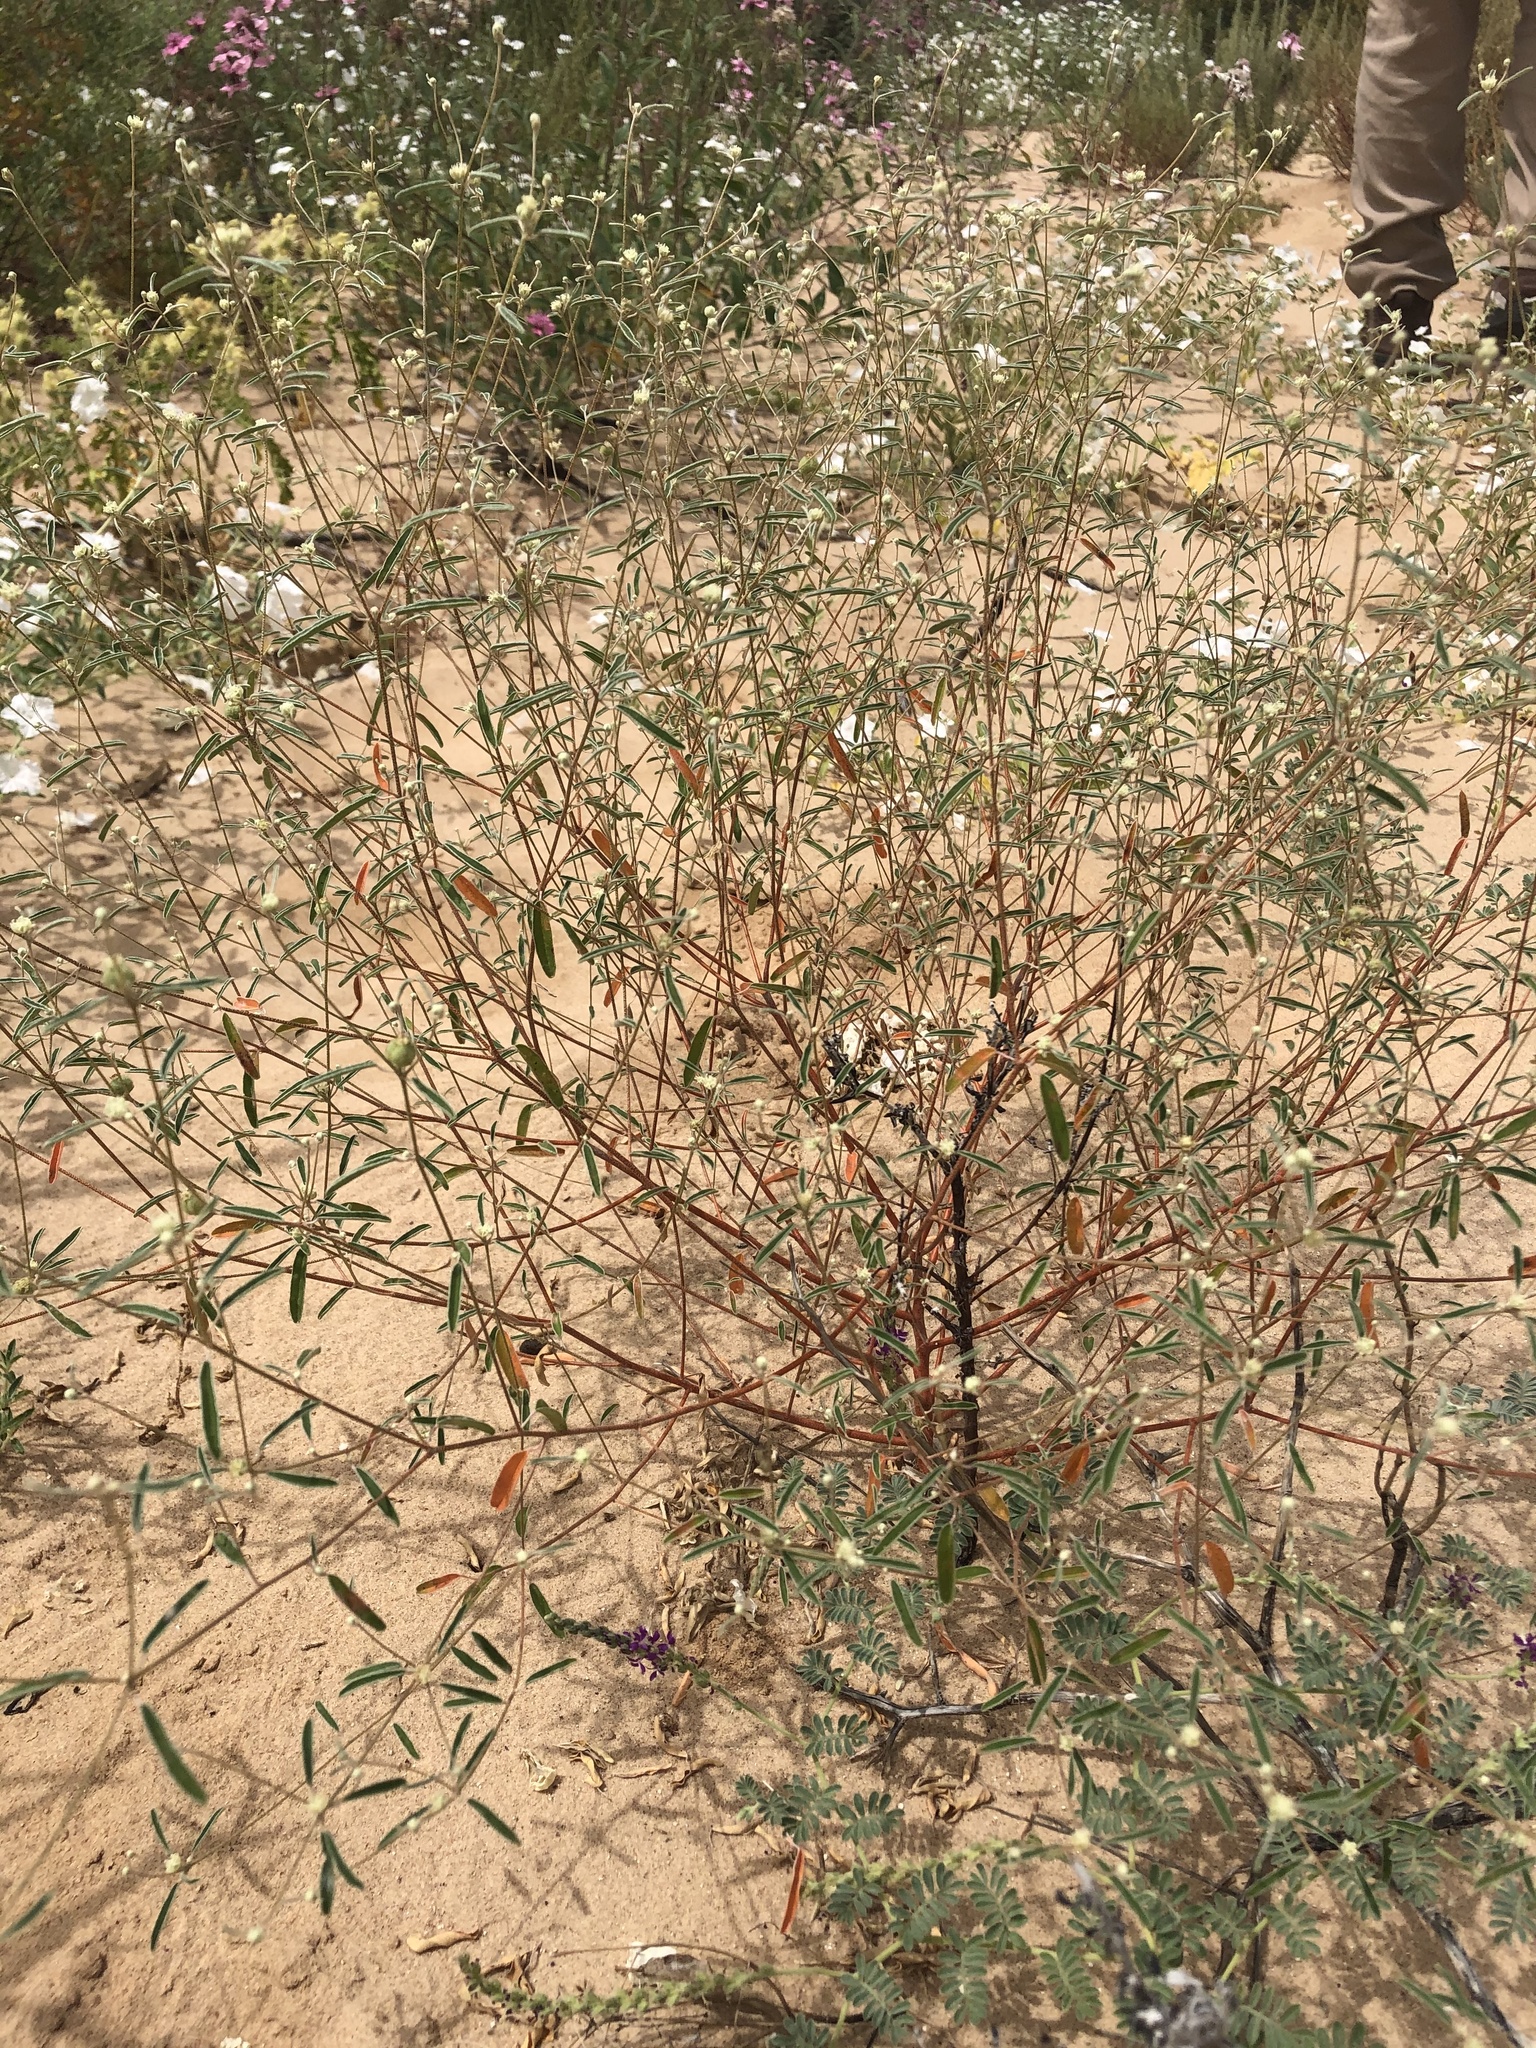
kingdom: Plantae
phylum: Tracheophyta
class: Magnoliopsida
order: Malpighiales
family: Euphorbiaceae
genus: Croton
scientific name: Croton texensis
